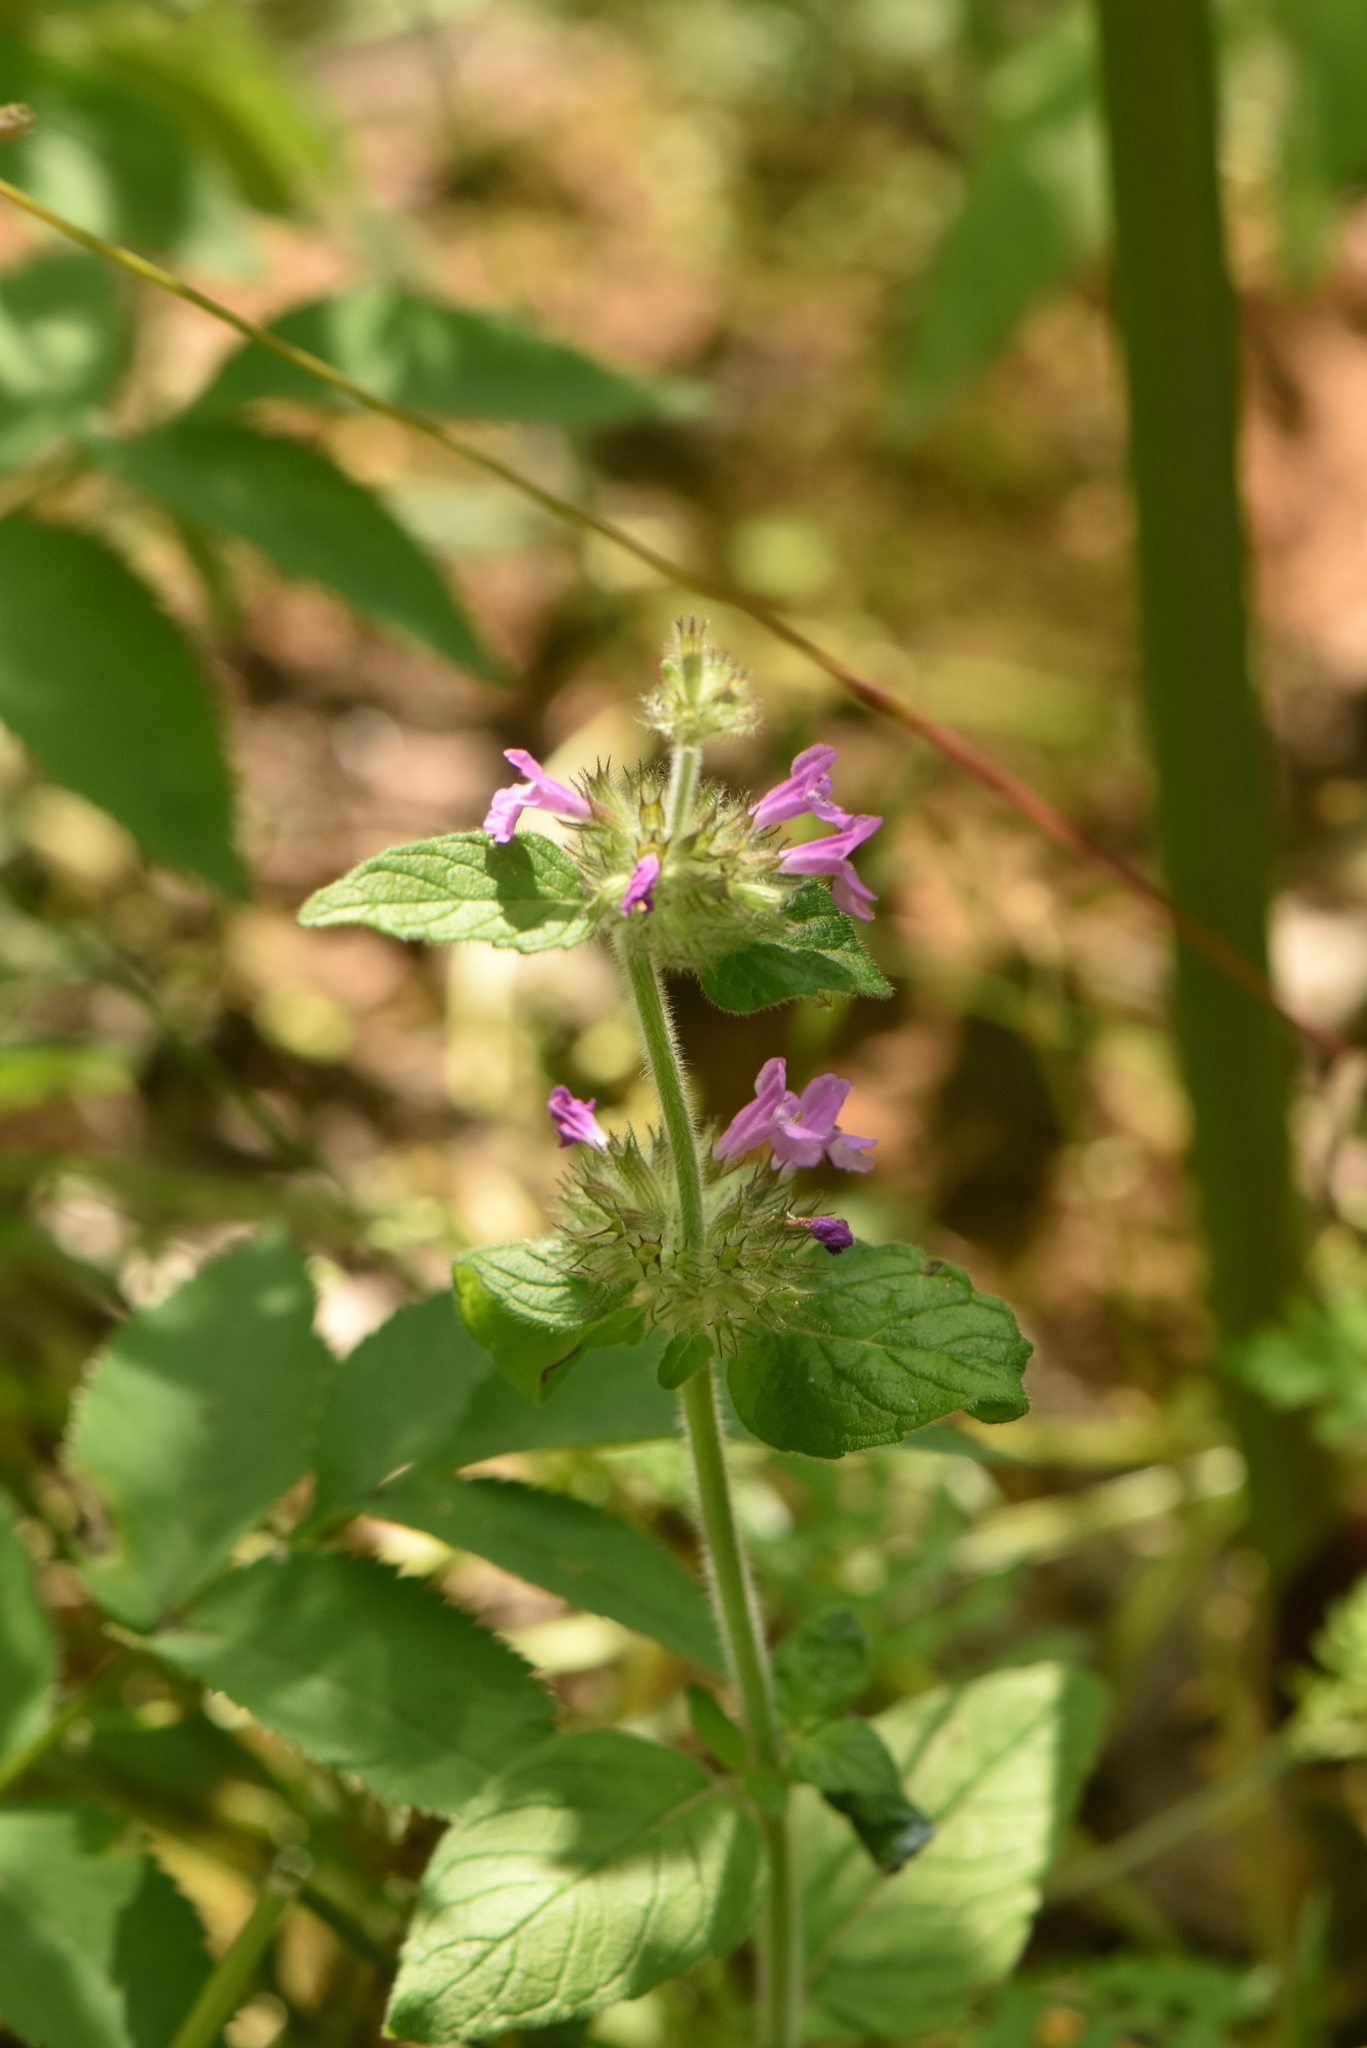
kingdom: Plantae
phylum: Tracheophyta
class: Magnoliopsida
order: Lamiales
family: Lamiaceae
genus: Clinopodium
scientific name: Clinopodium vulgare
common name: Wild basil
